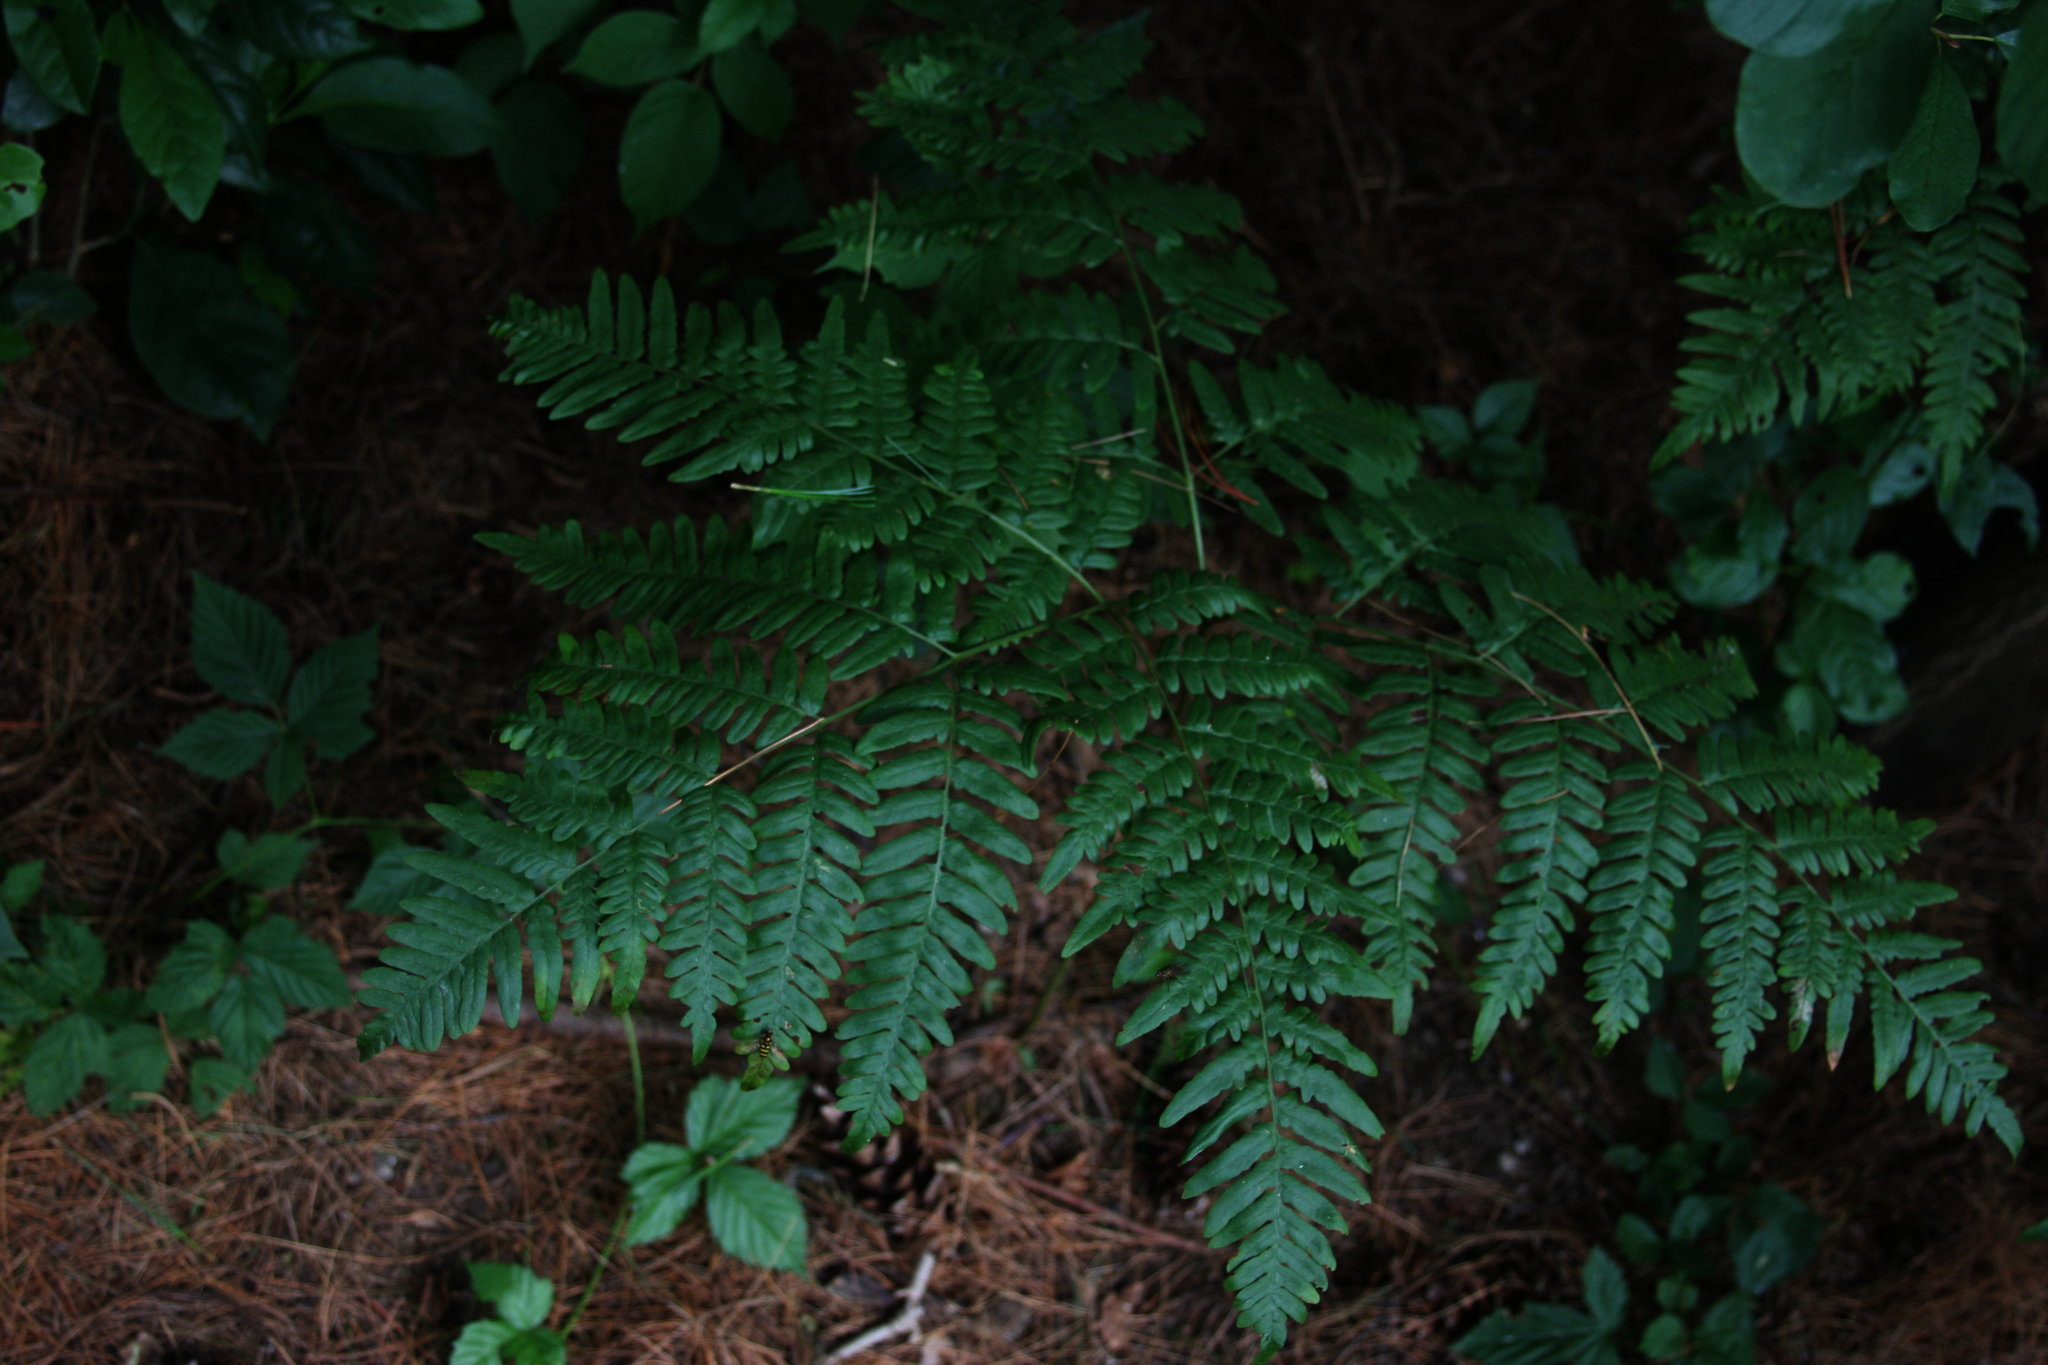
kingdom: Plantae
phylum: Tracheophyta
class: Polypodiopsida
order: Polypodiales
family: Dennstaedtiaceae
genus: Pteridium
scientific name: Pteridium aquilinum
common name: Bracken
